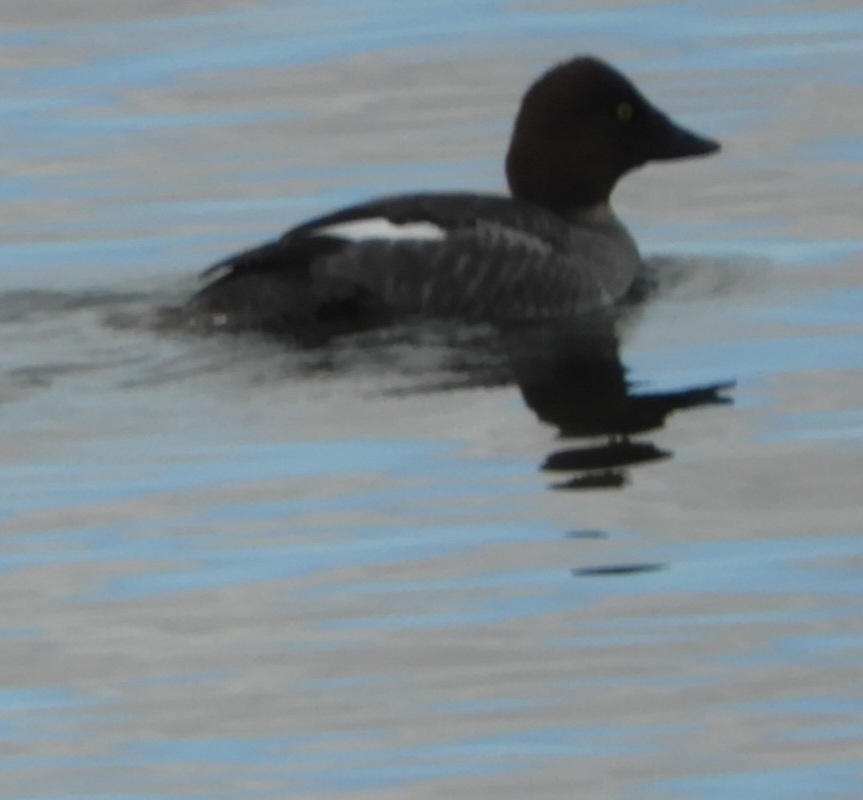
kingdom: Animalia
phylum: Chordata
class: Aves
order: Anseriformes
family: Anatidae
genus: Bucephala
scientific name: Bucephala clangula
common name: Common goldeneye
